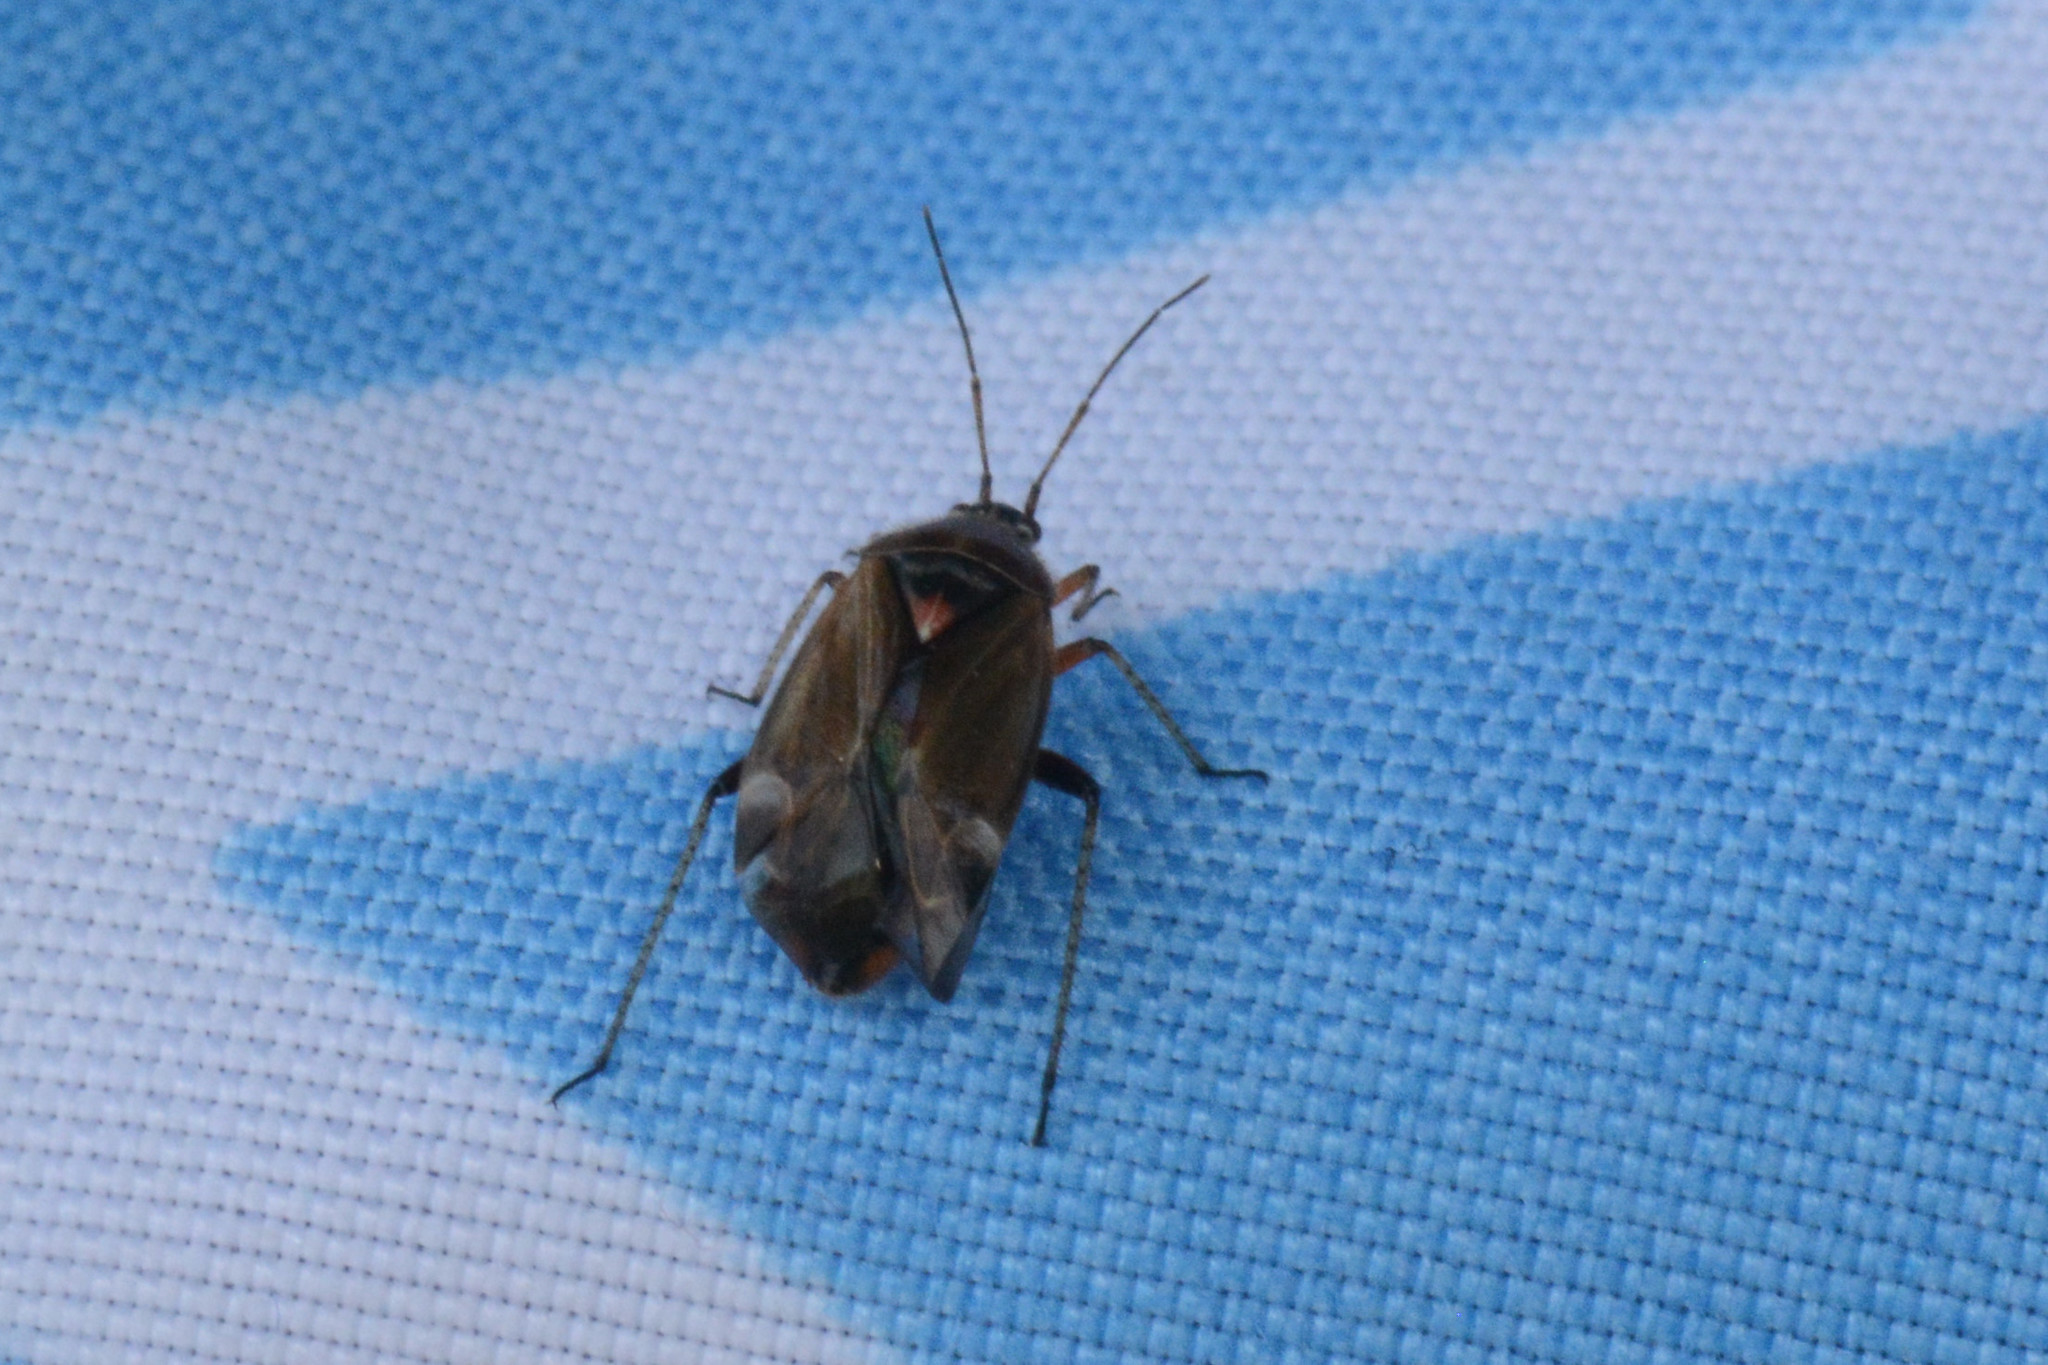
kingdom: Animalia
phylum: Arthropoda
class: Insecta
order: Hemiptera
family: Miridae
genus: Harpocera
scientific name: Harpocera thoracica
